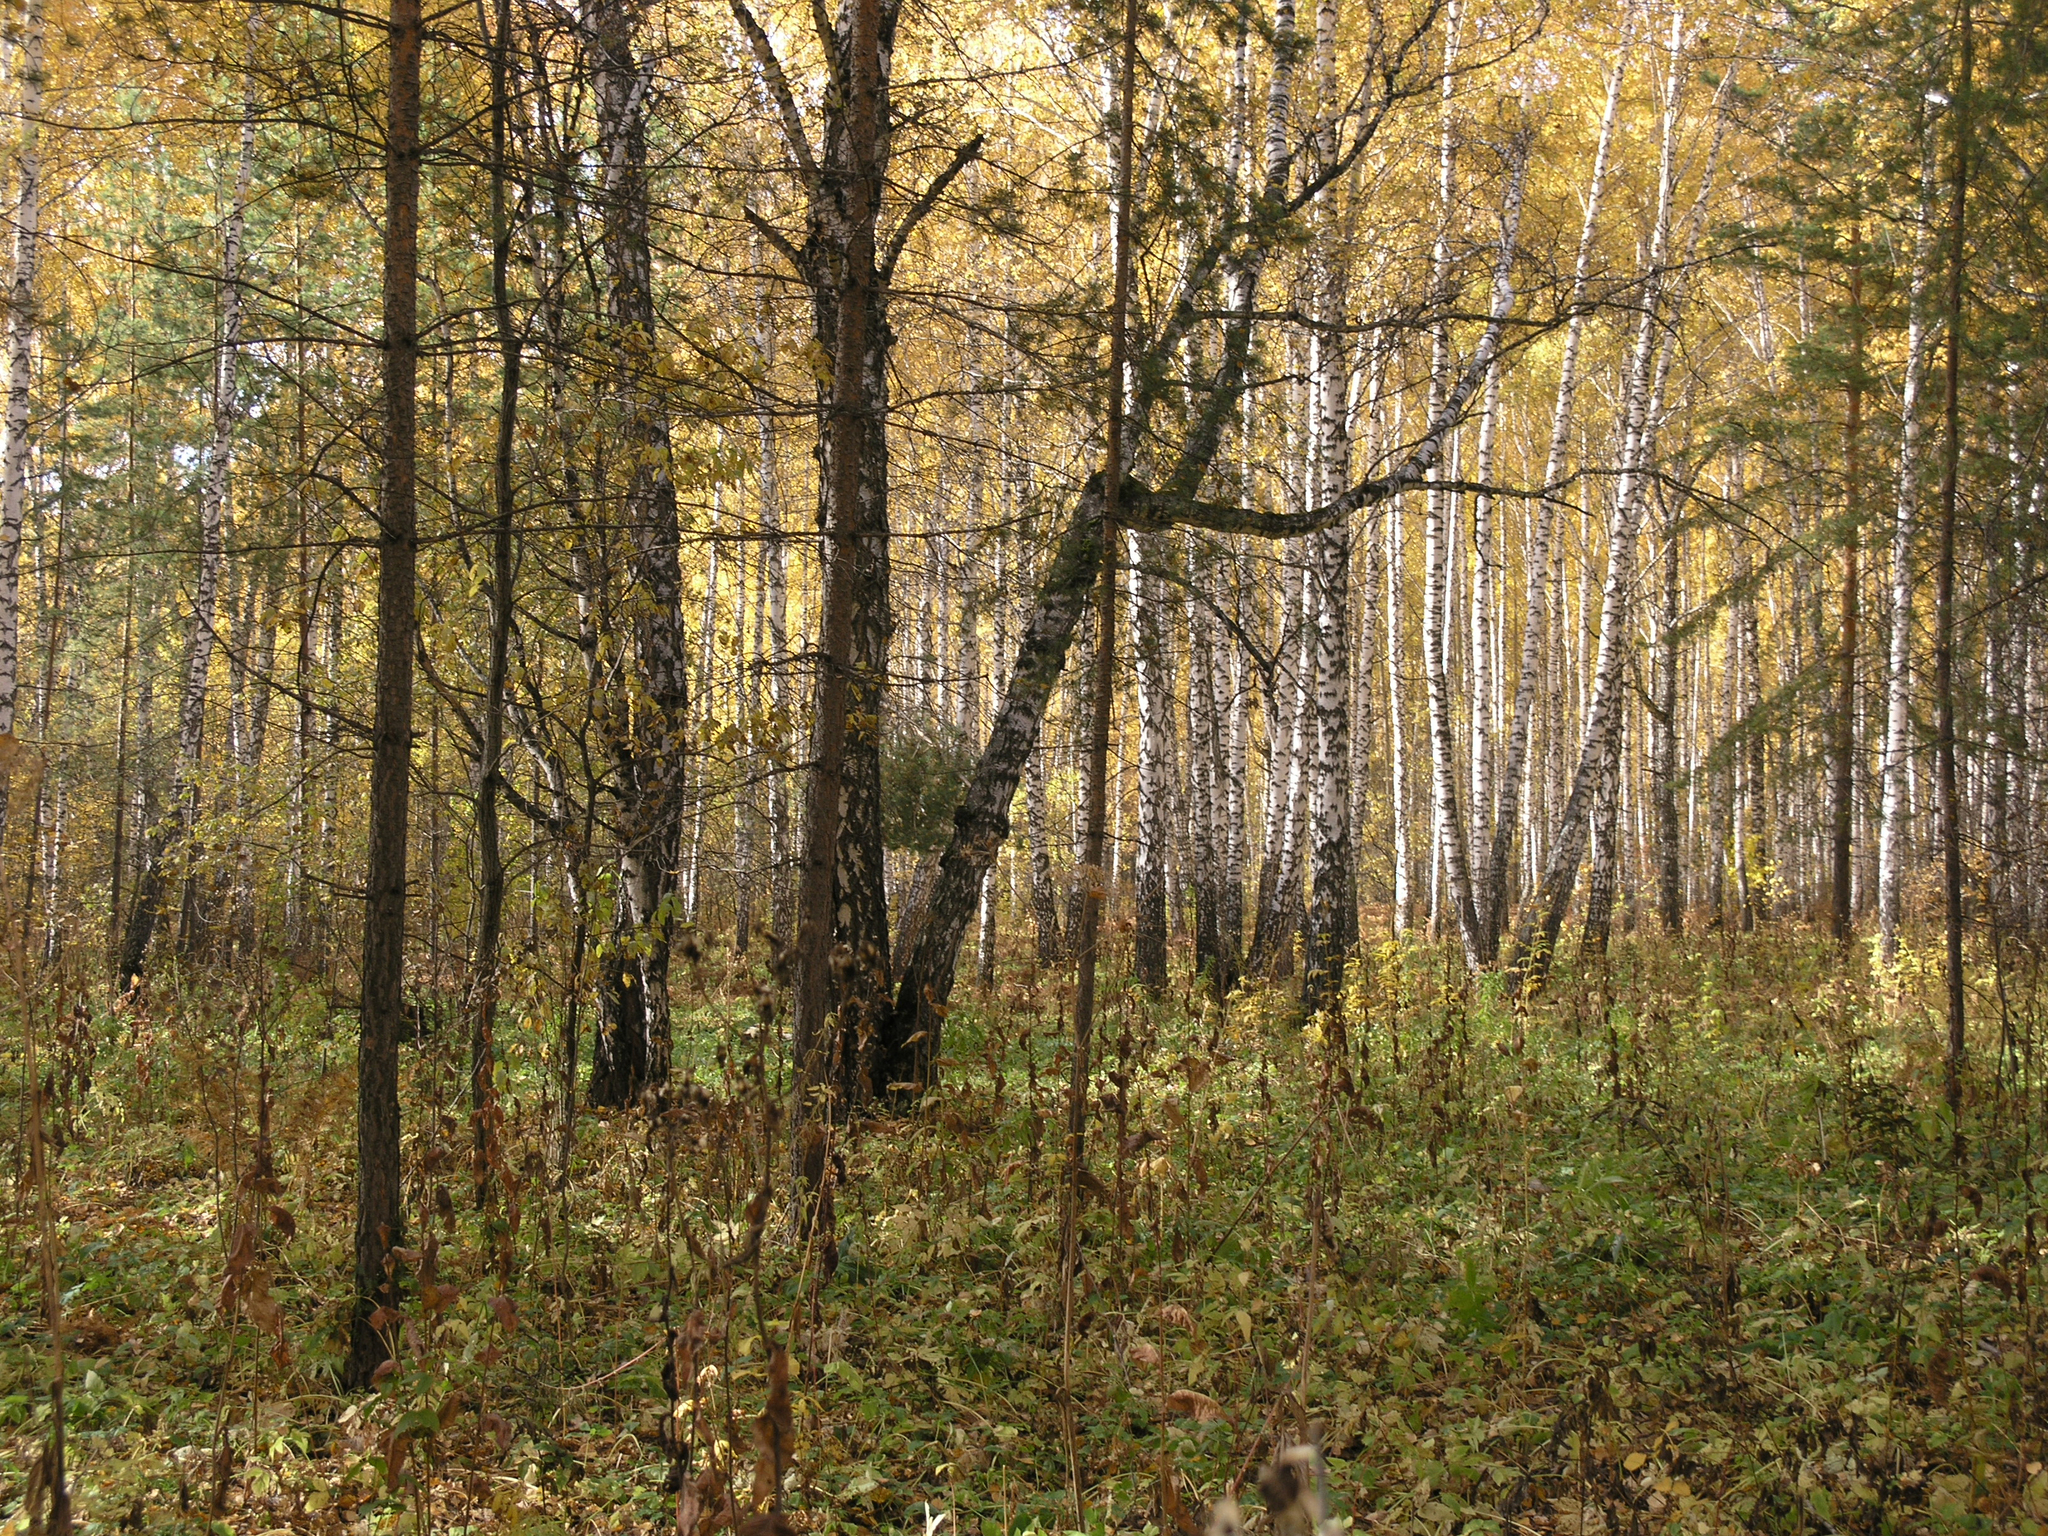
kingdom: Plantae
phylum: Tracheophyta
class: Pinopsida
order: Pinales
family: Pinaceae
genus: Pinus
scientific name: Pinus sylvestris
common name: Scots pine
